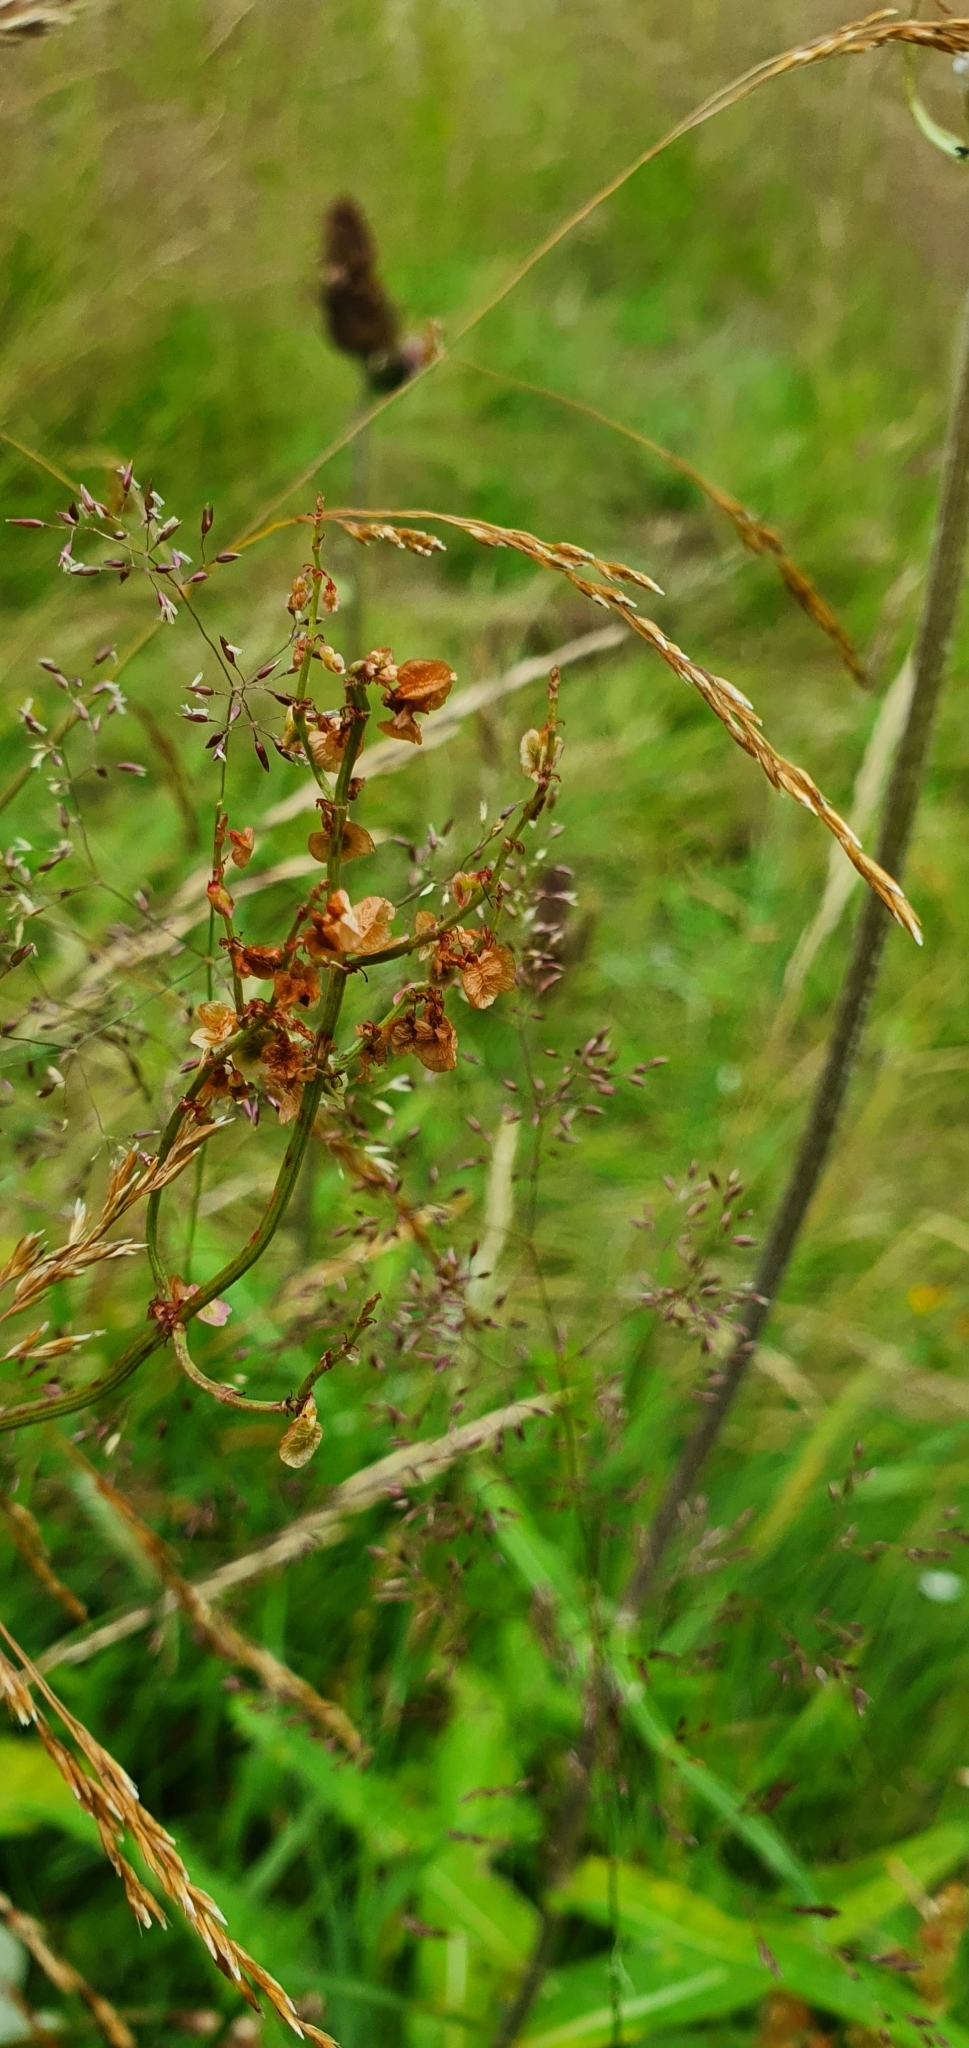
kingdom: Plantae
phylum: Tracheophyta
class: Magnoliopsida
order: Caryophyllales
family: Polygonaceae
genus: Rumex
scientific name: Rumex acetosa
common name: Garden sorrel
